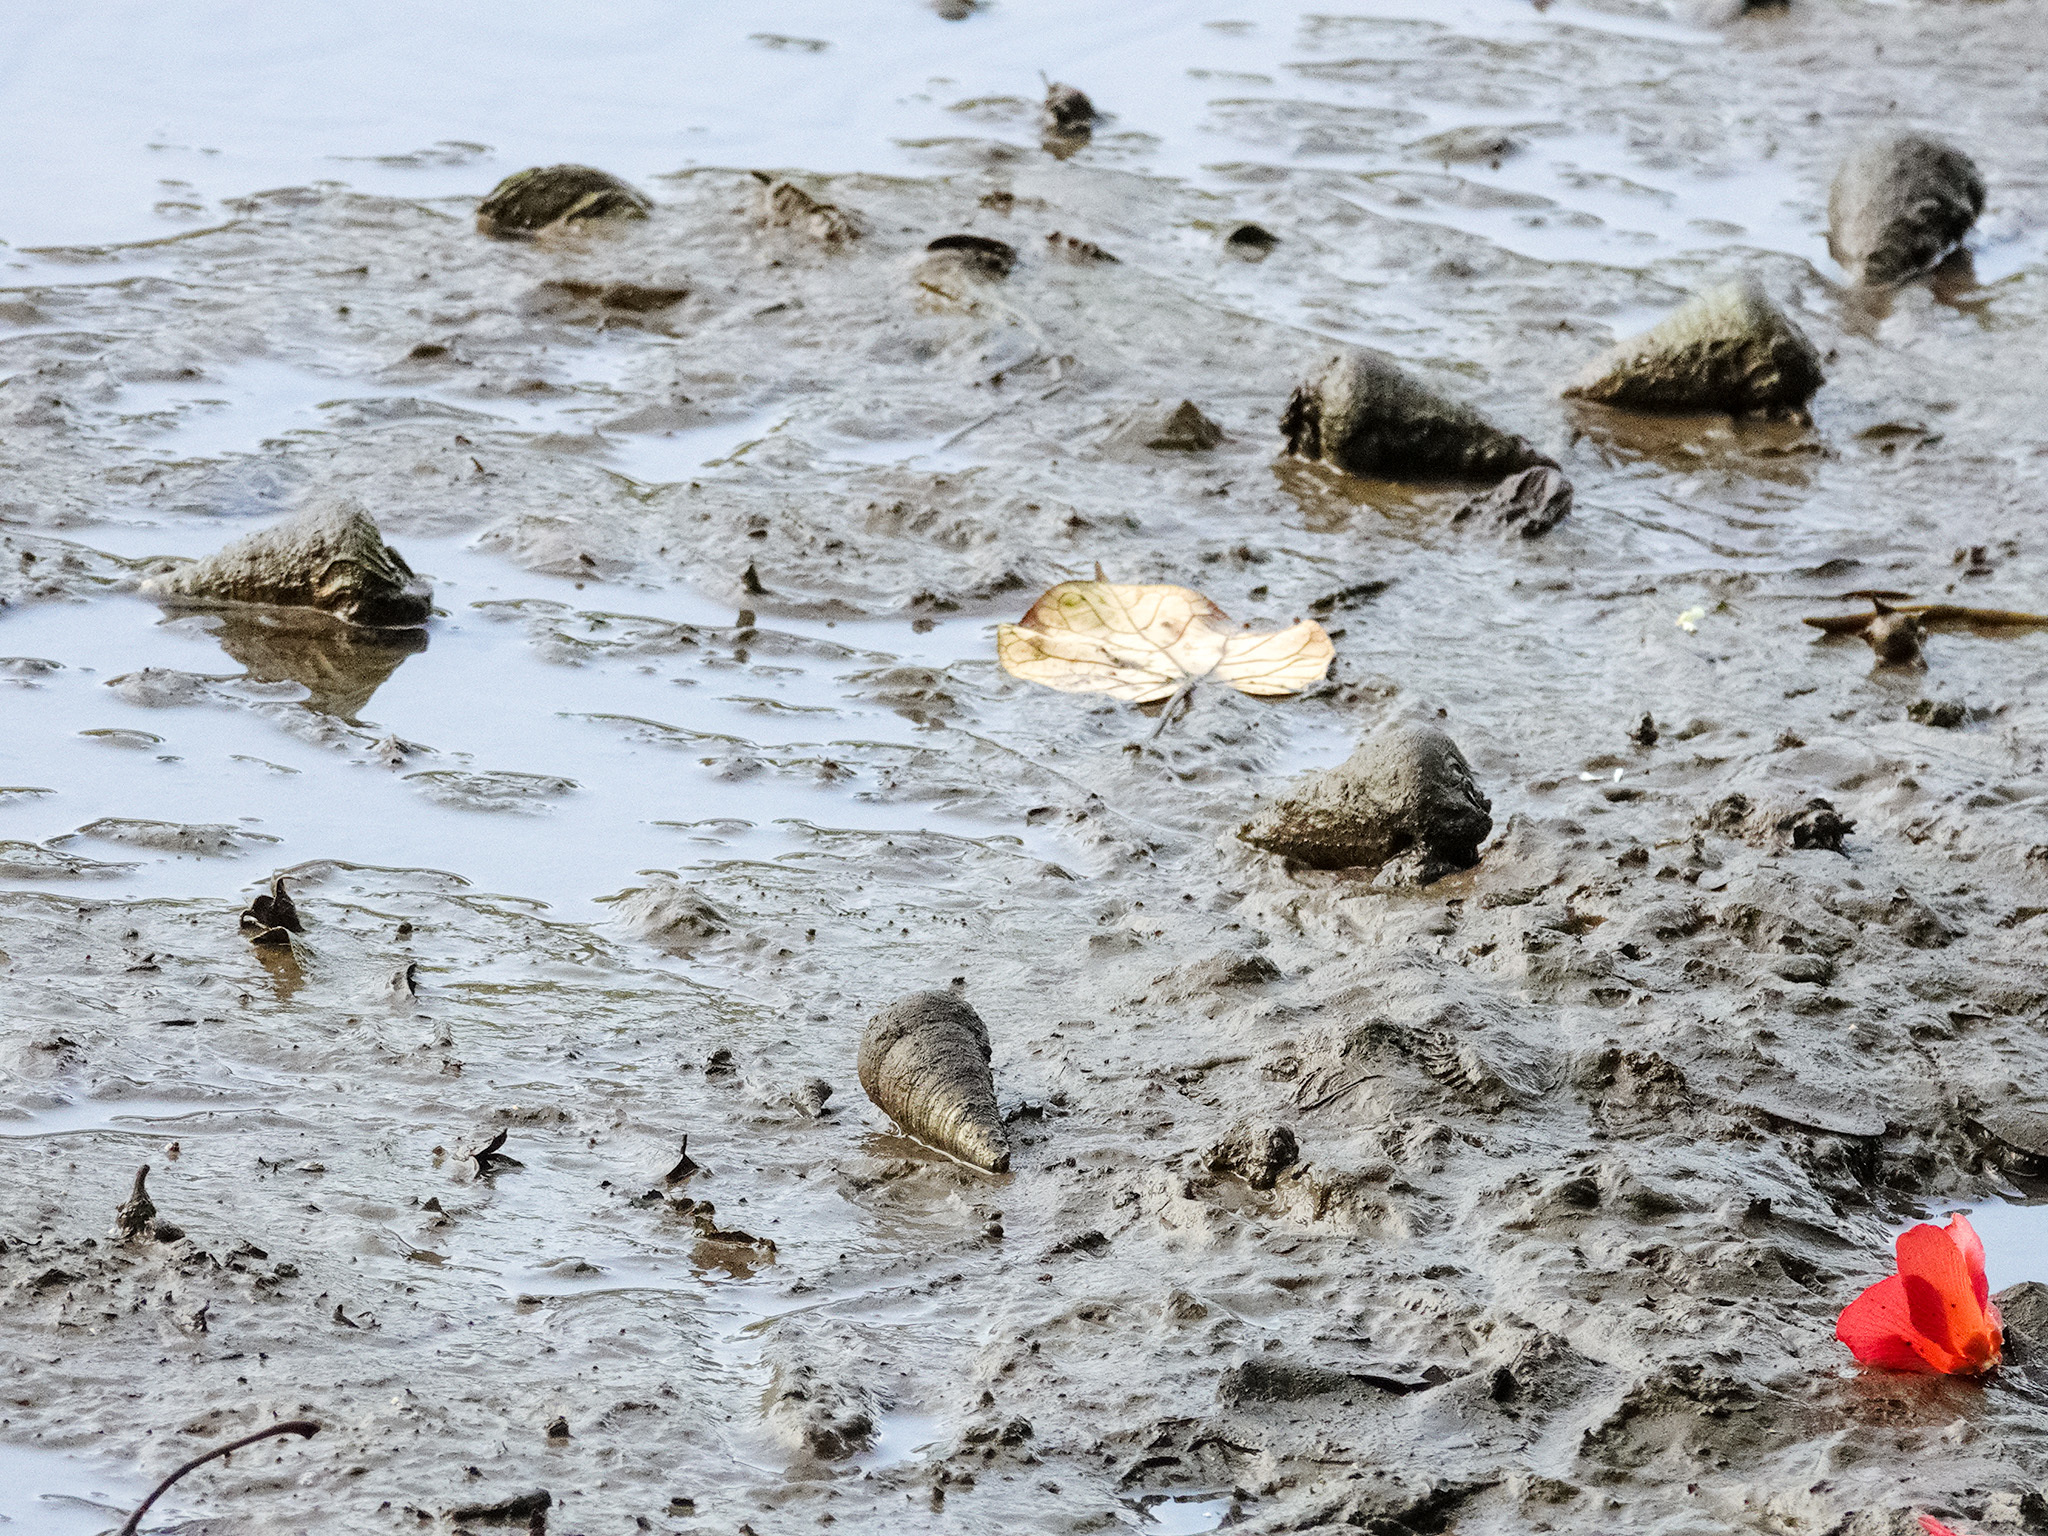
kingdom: Animalia
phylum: Mollusca
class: Gastropoda
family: Potamididae
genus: Telescopium
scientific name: Telescopium telescopium
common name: Telescope creeper
